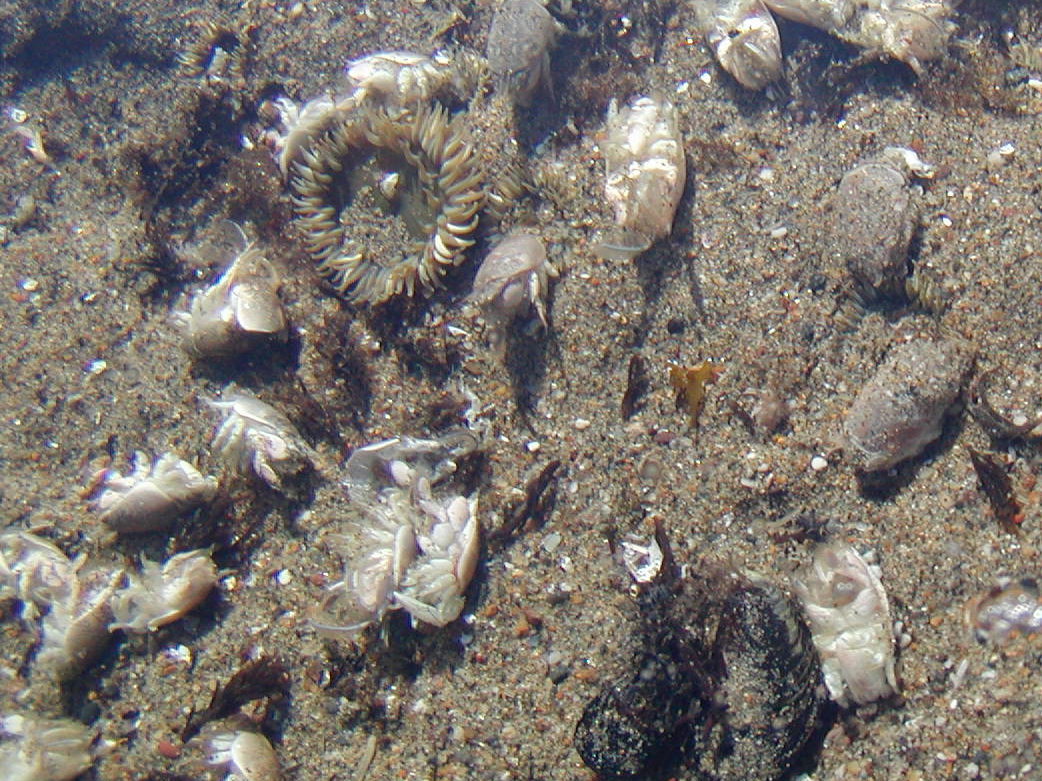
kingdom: Animalia
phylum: Arthropoda
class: Malacostraca
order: Decapoda
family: Hippidae
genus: Emerita
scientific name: Emerita analoga
